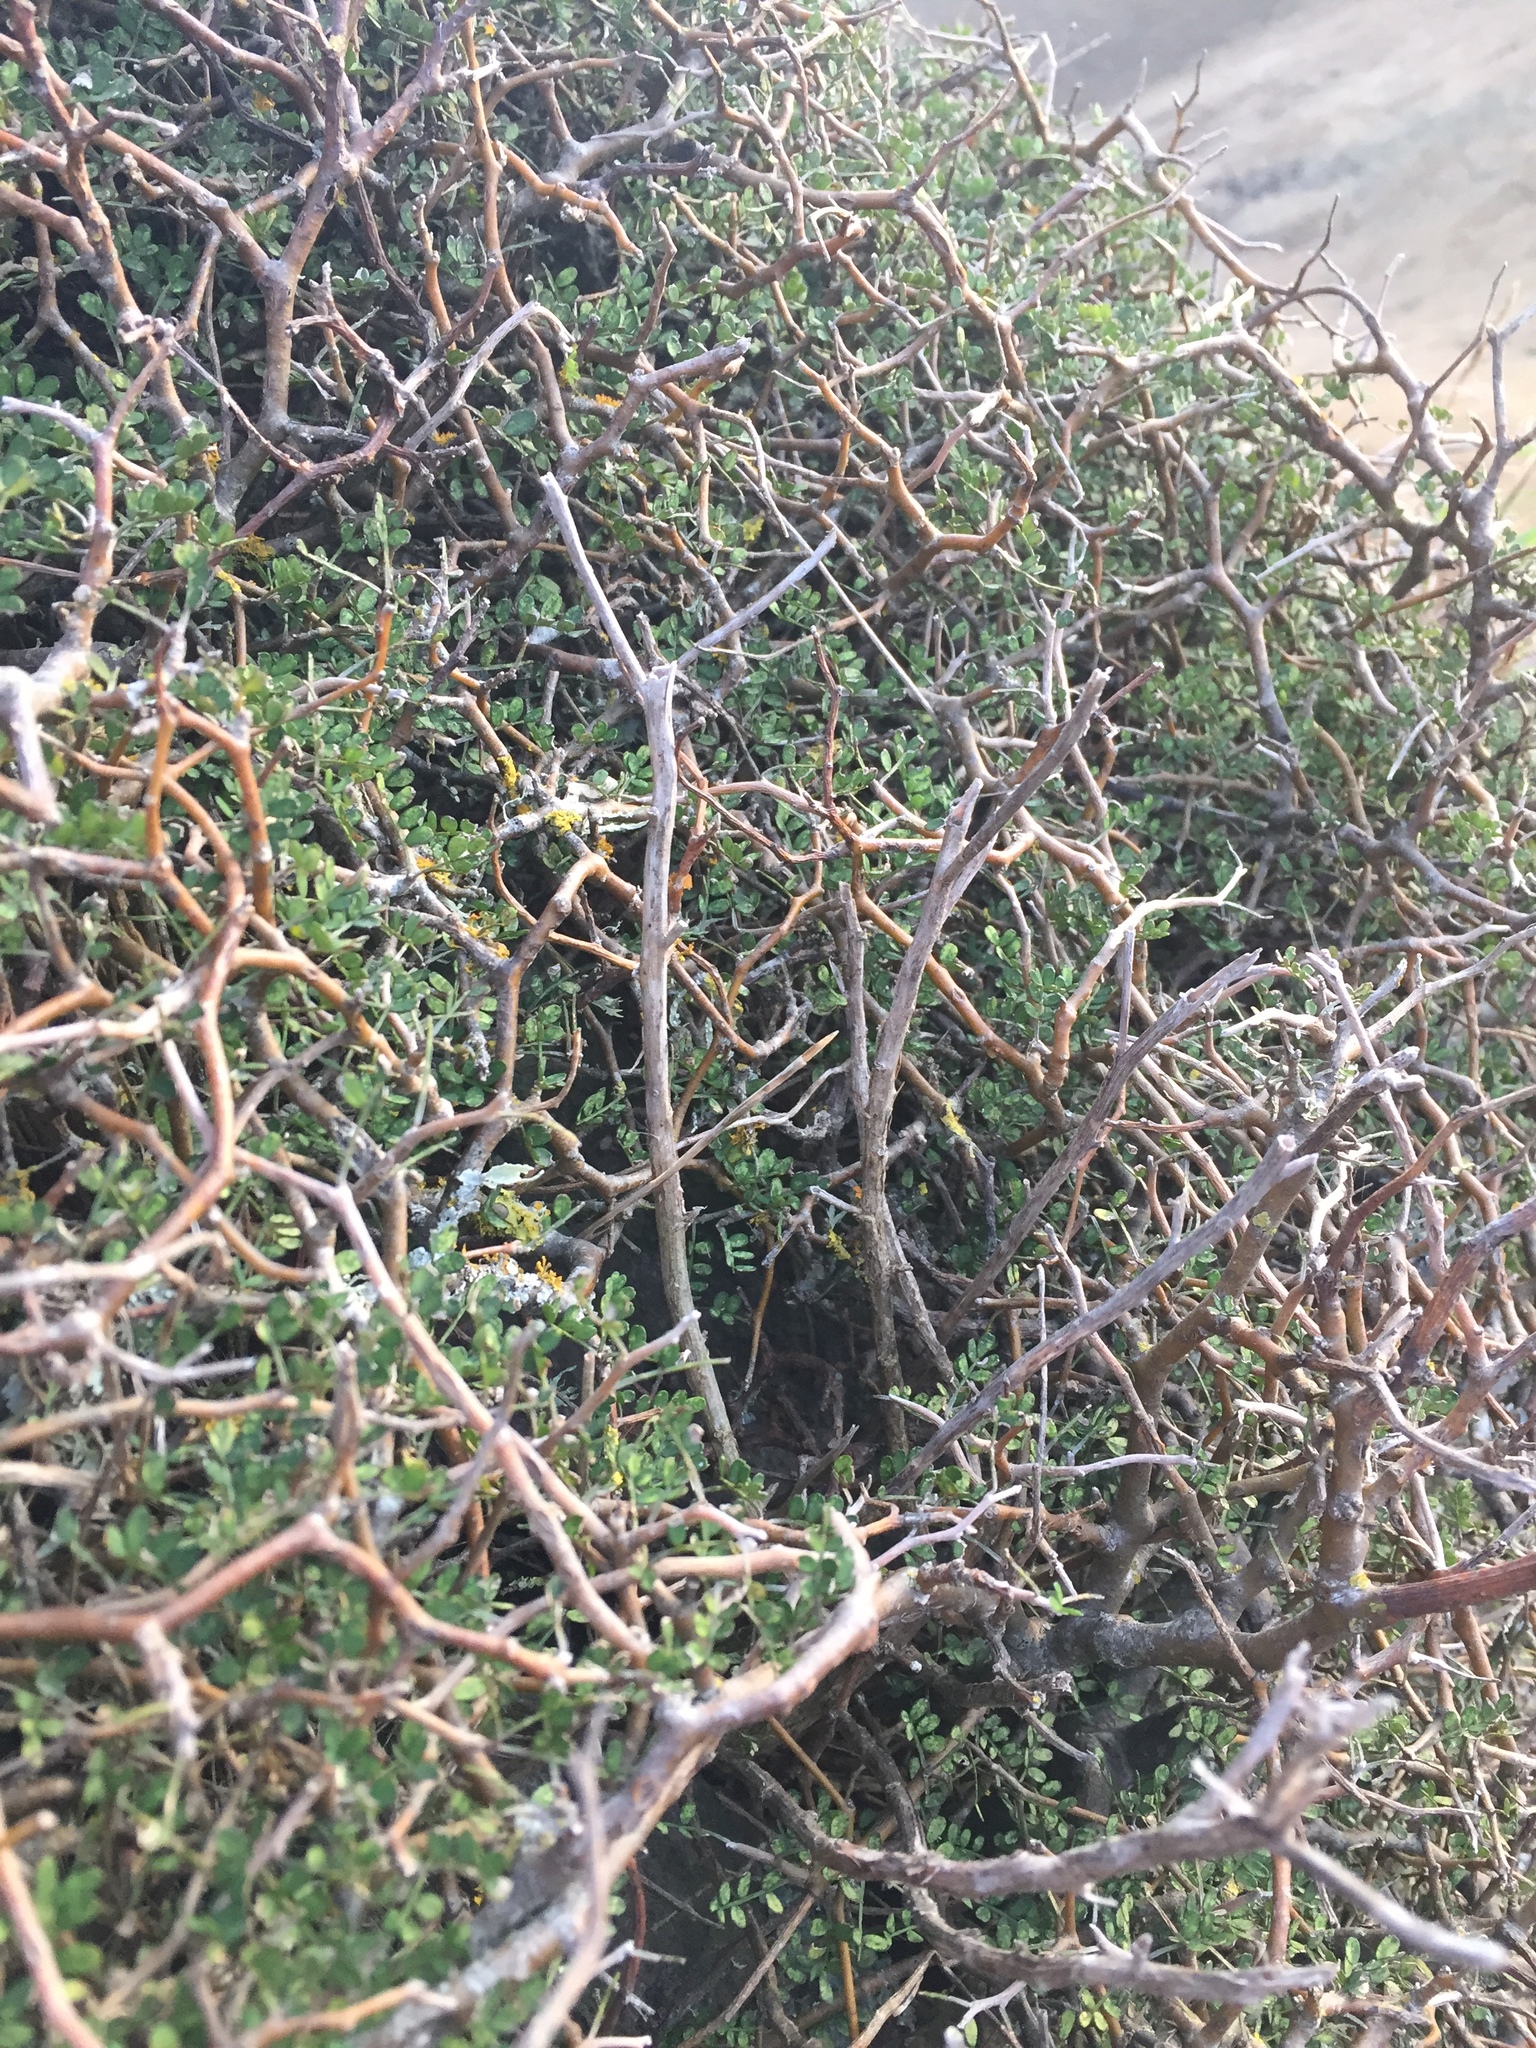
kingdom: Plantae
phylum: Tracheophyta
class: Magnoliopsida
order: Fabales
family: Fabaceae
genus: Sophora
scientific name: Sophora prostrata
